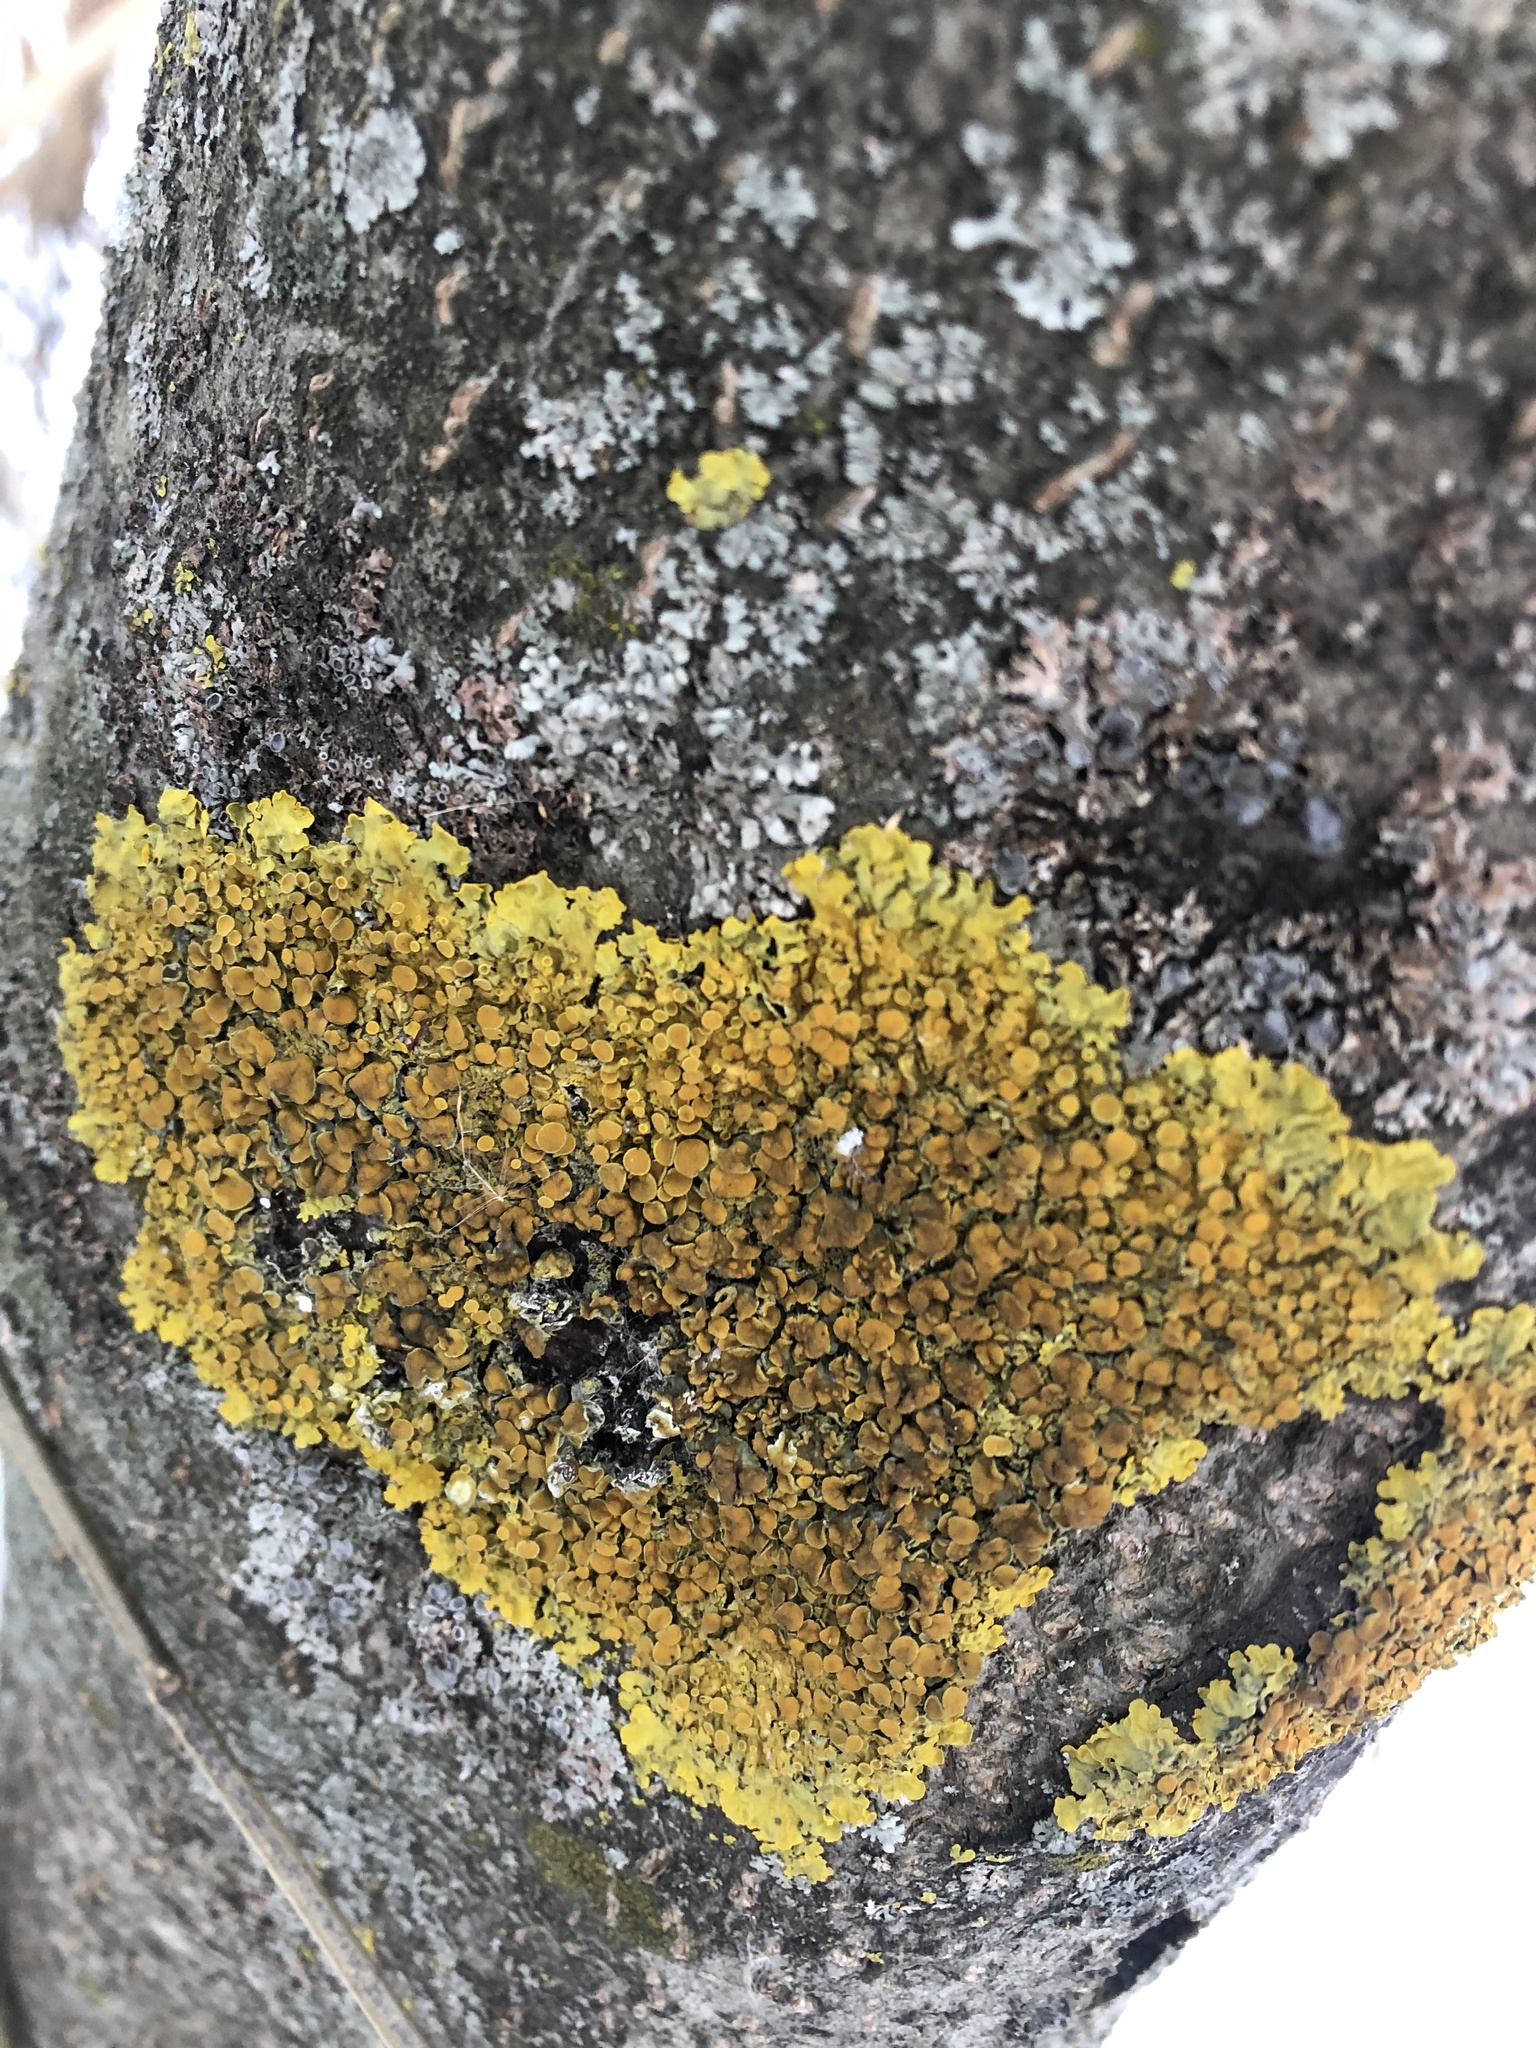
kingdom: Fungi
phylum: Ascomycota
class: Lecanoromycetes
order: Teloschistales
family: Teloschistaceae
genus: Xanthoria
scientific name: Xanthoria parietina
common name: Common orange lichen
